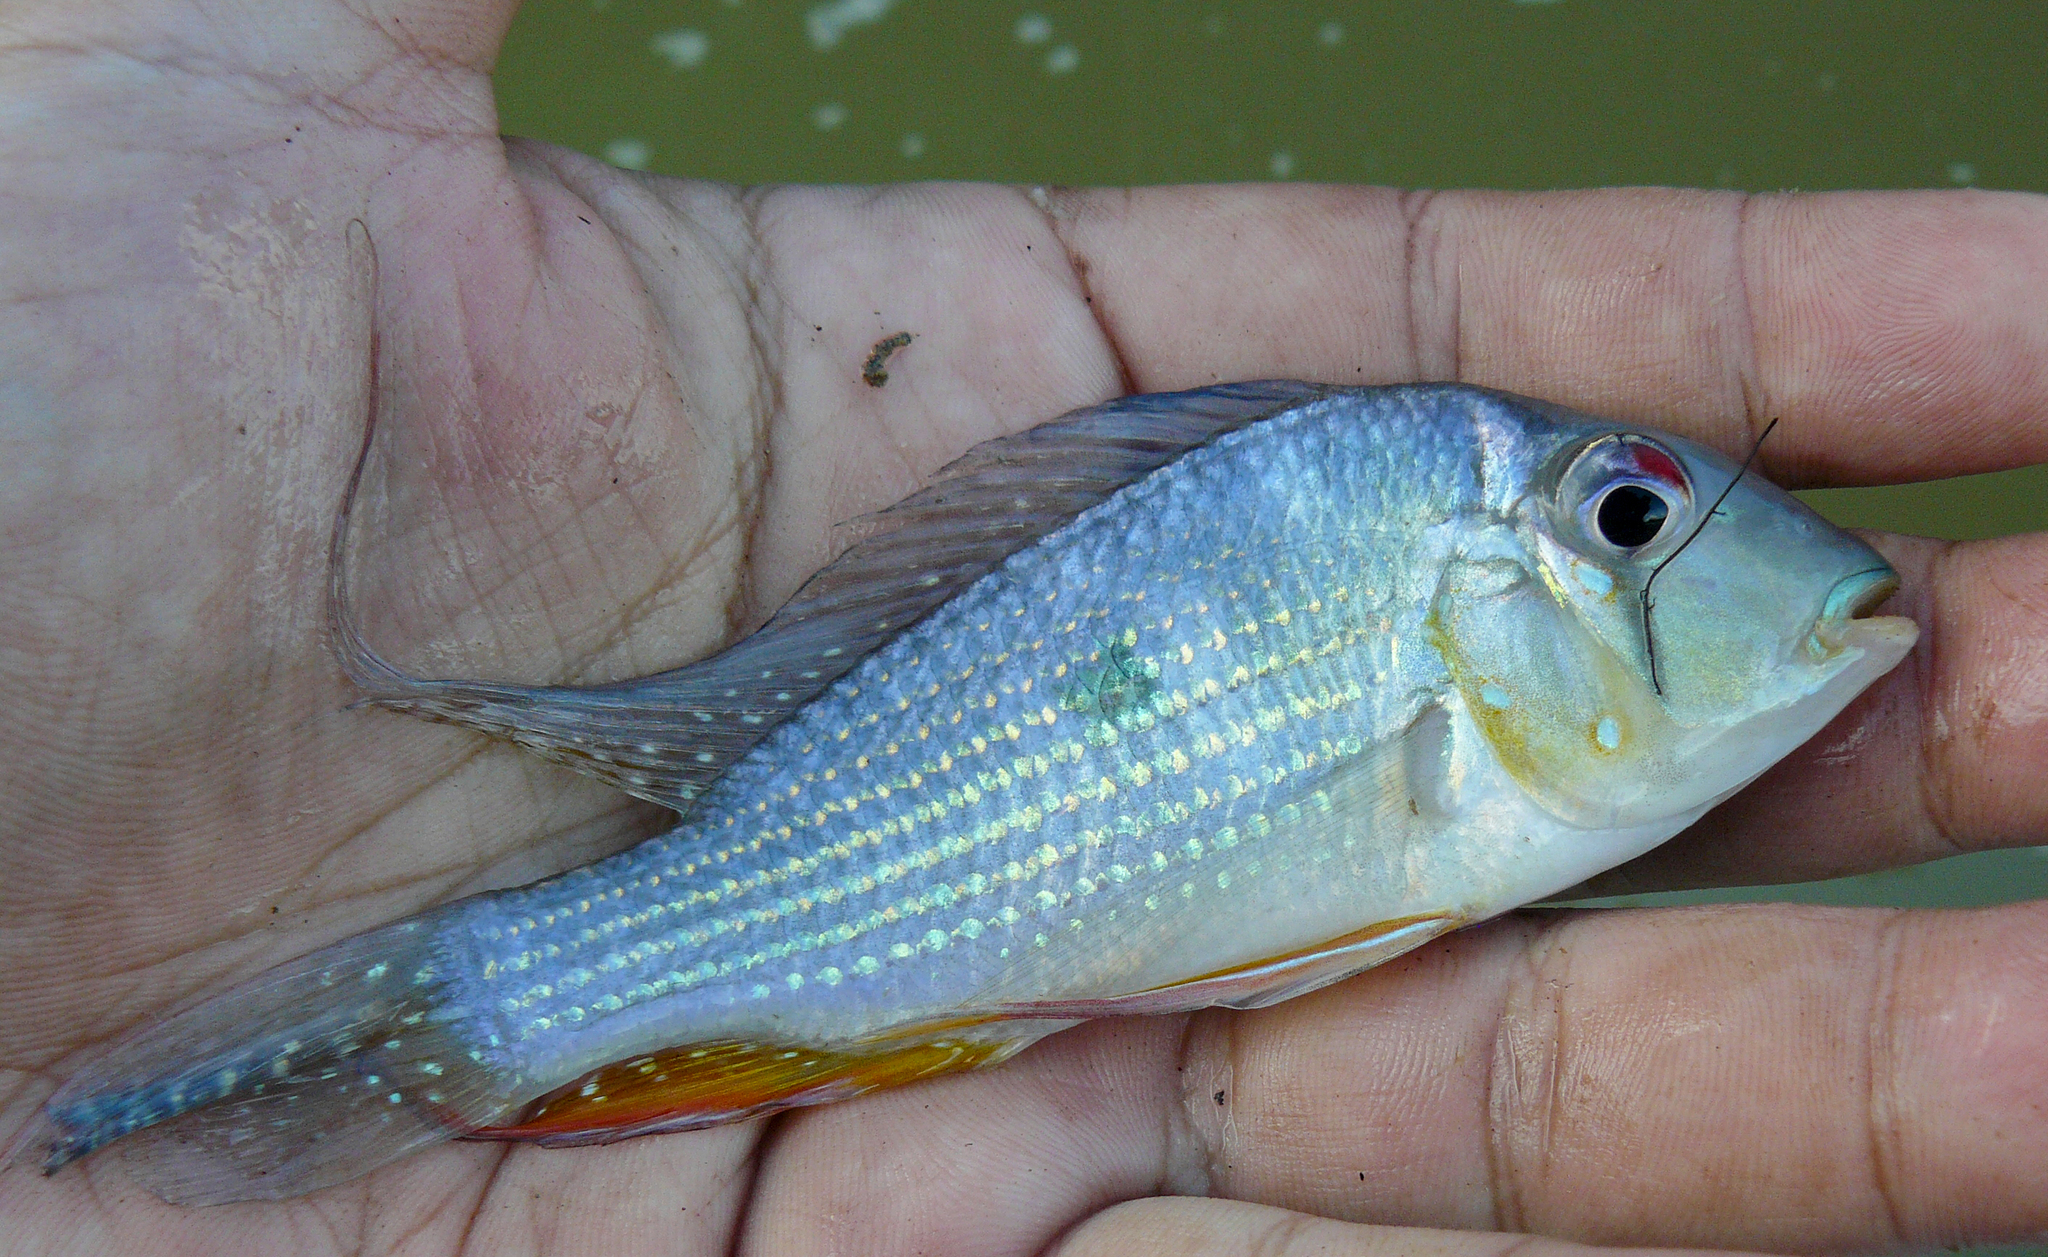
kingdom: Animalia
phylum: Chordata
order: Perciformes
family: Cichlidae
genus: Acarichthys
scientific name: Acarichthys heckelii
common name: Threadfin acara
